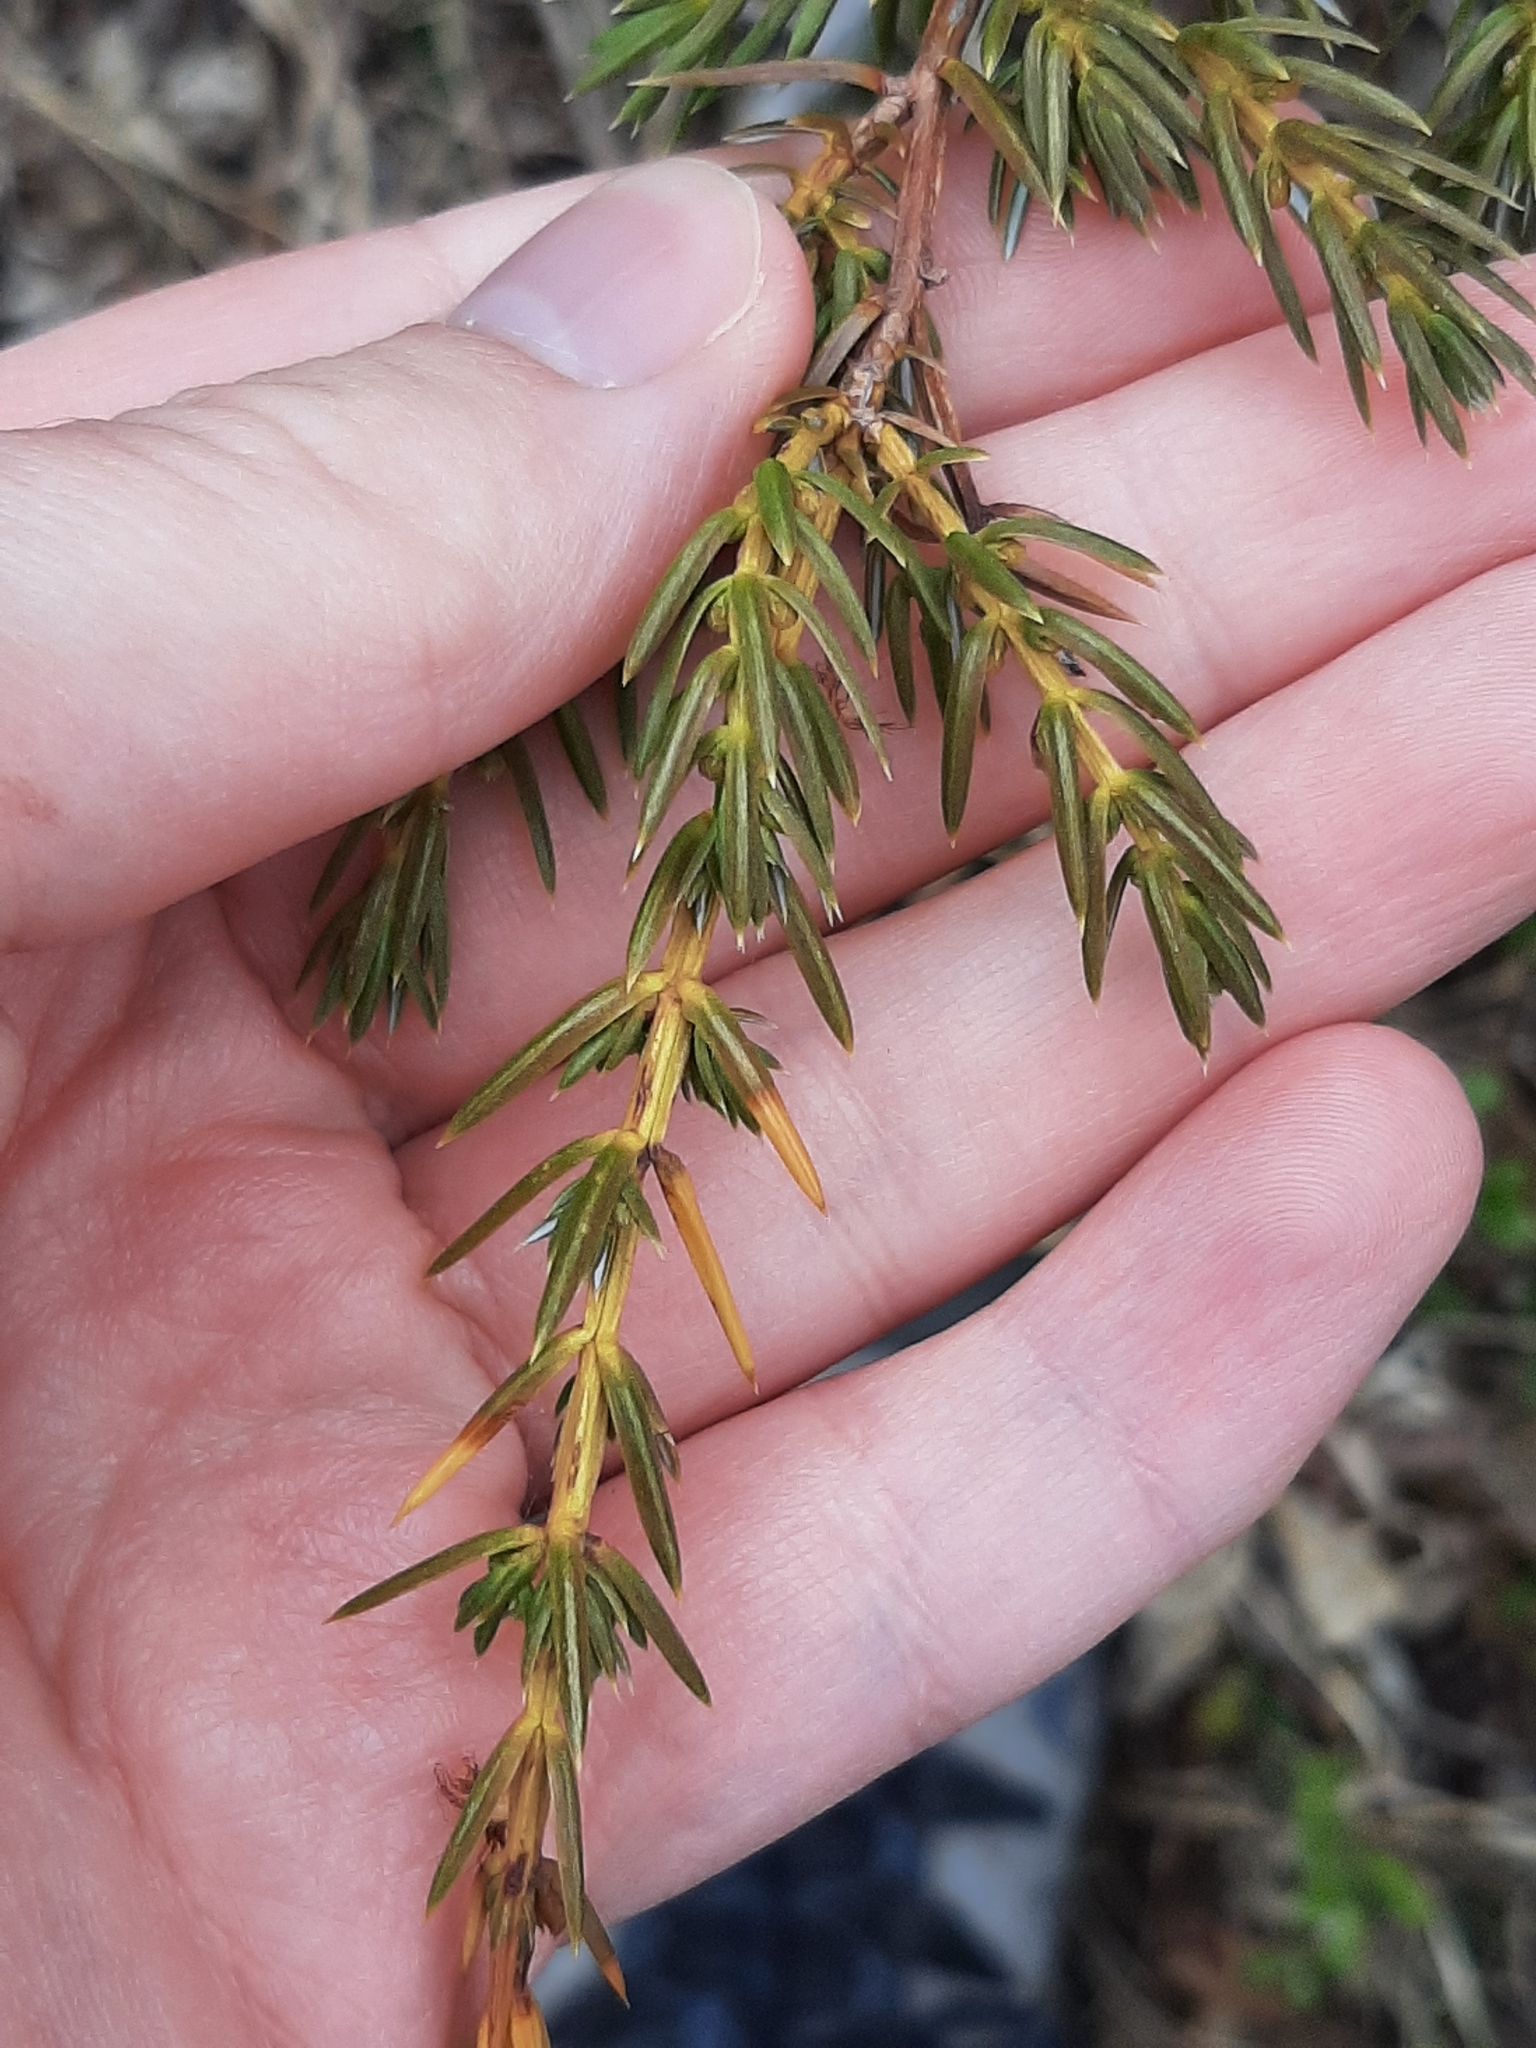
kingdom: Plantae
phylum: Tracheophyta
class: Pinopsida
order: Pinales
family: Cupressaceae
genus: Juniperus
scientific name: Juniperus communis
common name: Common juniper
